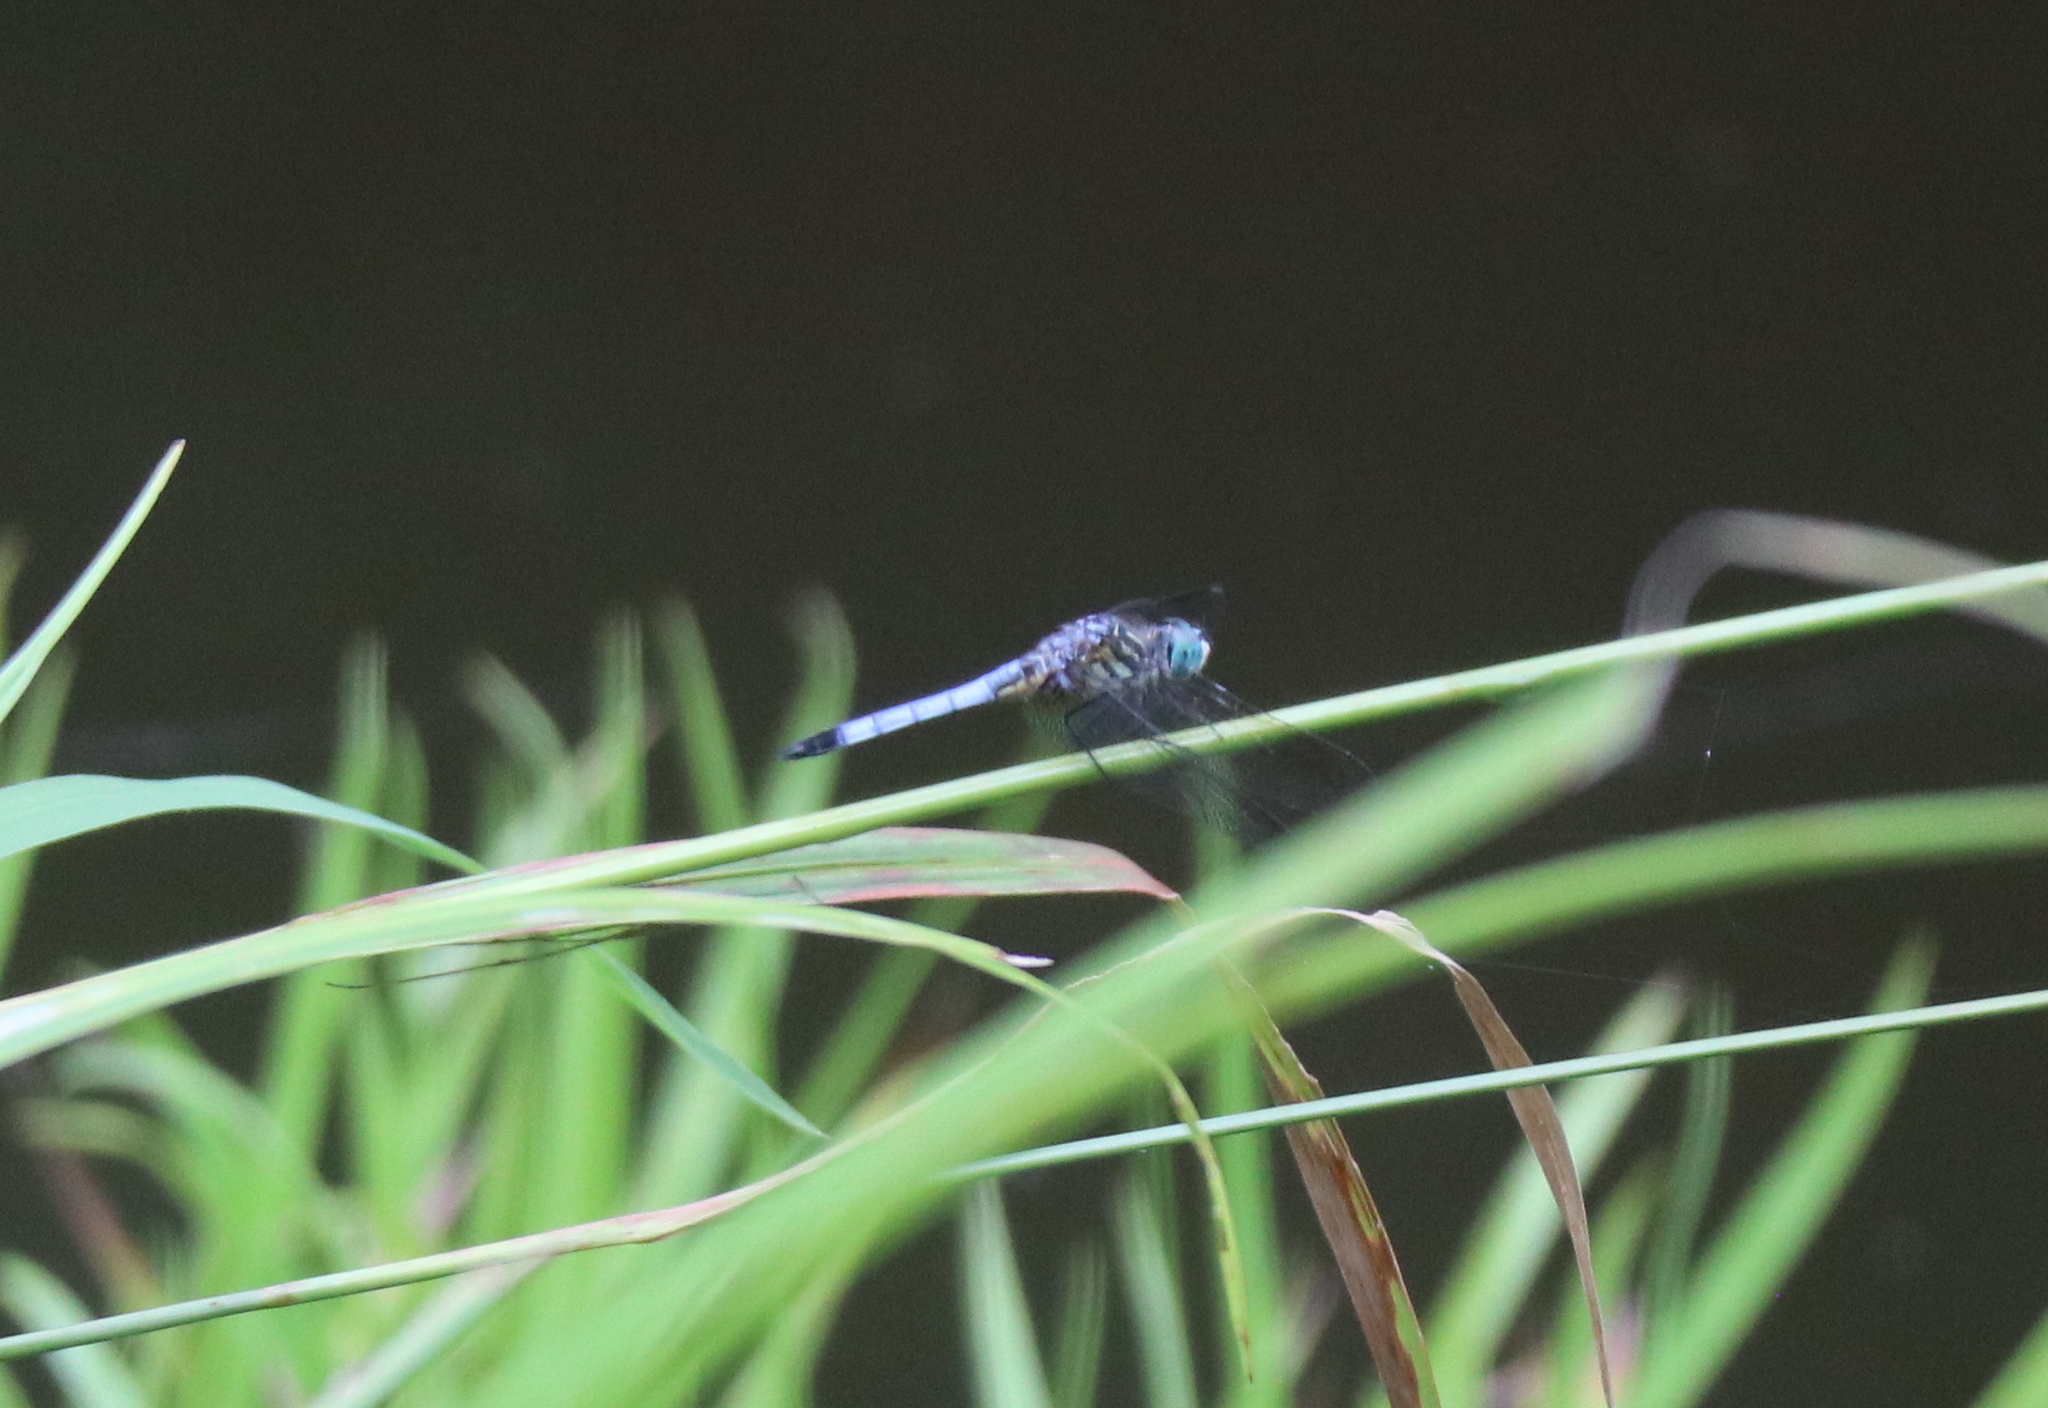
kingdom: Animalia
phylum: Arthropoda
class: Insecta
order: Odonata
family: Libellulidae
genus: Pachydiplax
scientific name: Pachydiplax longipennis
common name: Blue dasher
